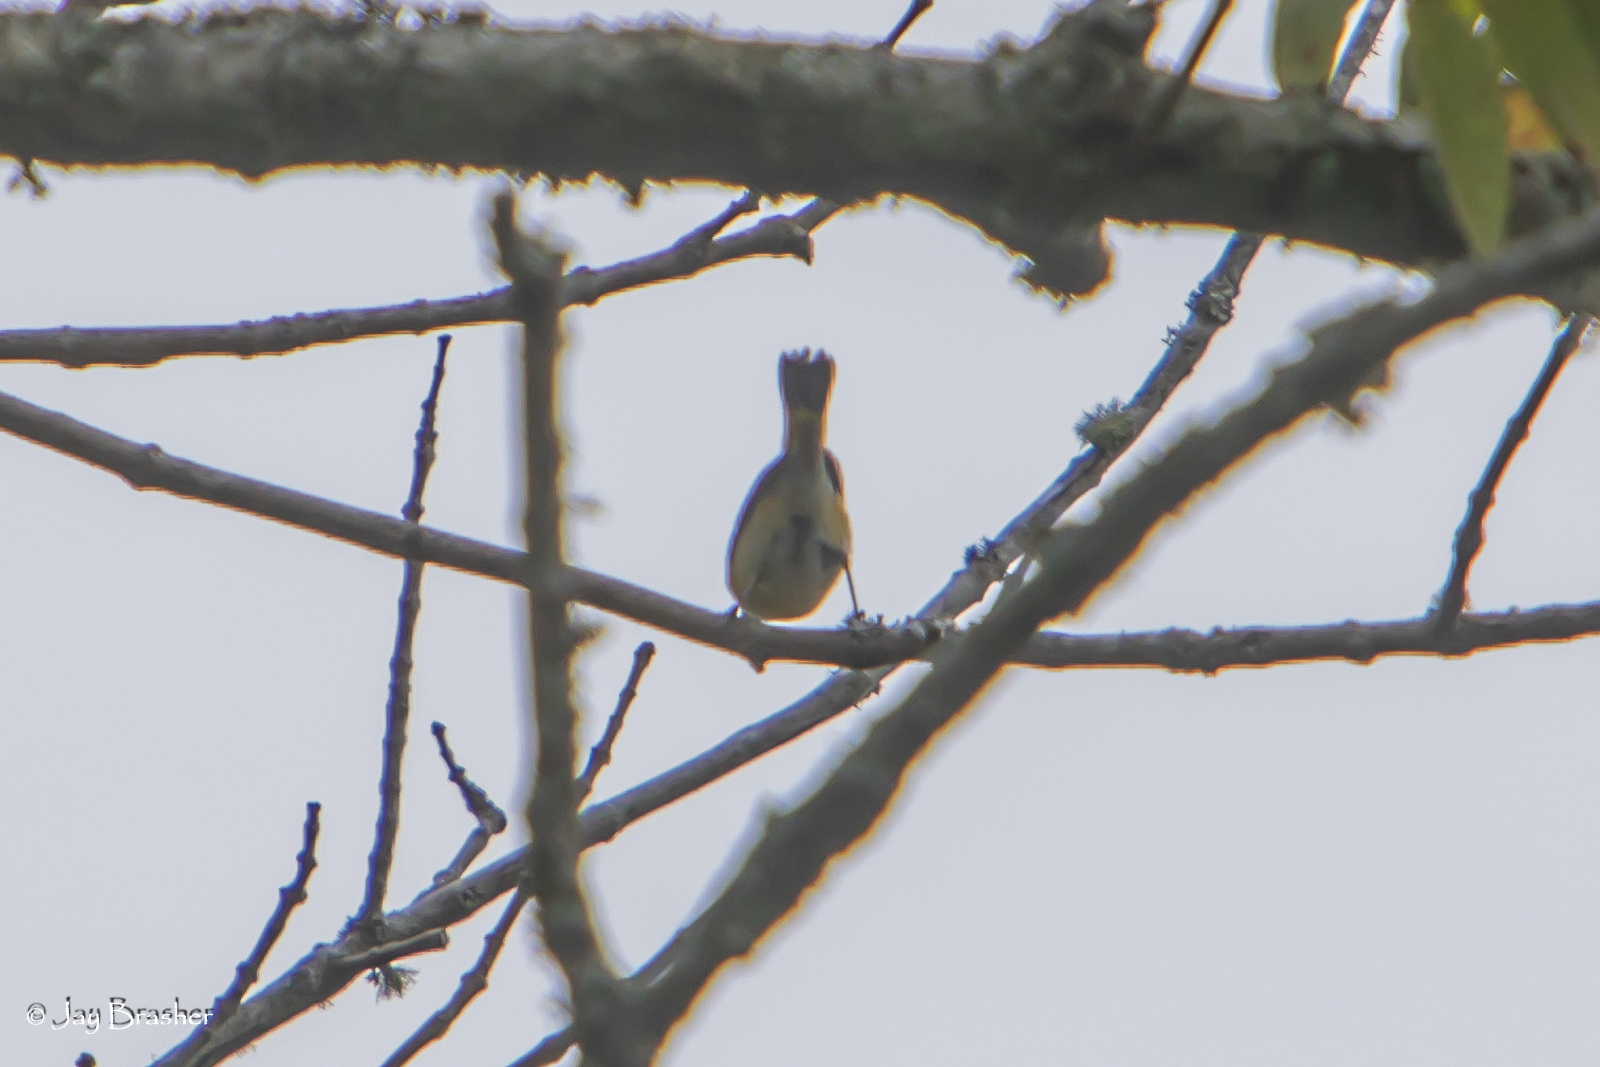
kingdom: Animalia
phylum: Chordata
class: Aves
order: Passeriformes
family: Parulidae
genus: Setophaga
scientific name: Setophaga ruticilla
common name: American redstart
